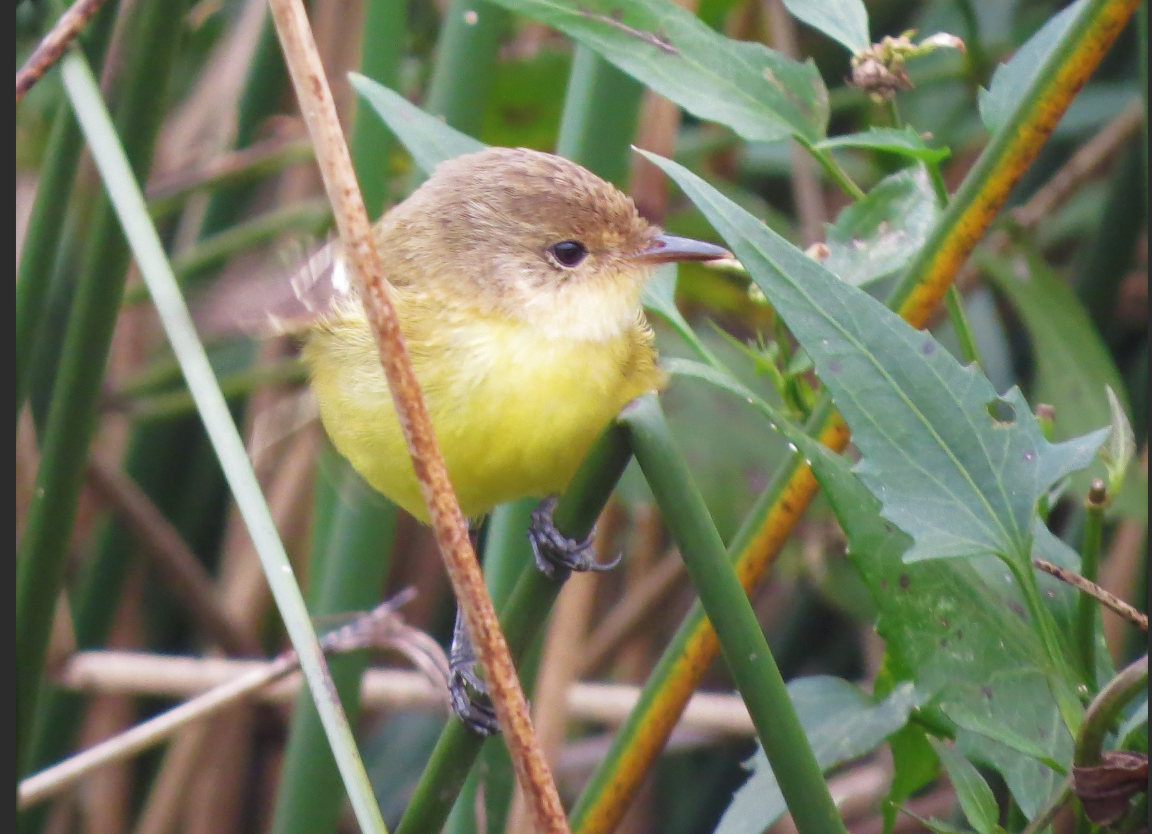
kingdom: Animalia
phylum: Chordata
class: Aves
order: Passeriformes
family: Tyrannidae
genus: Pseudocolopteryx
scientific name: Pseudocolopteryx flaviventris
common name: Warbling doradito
